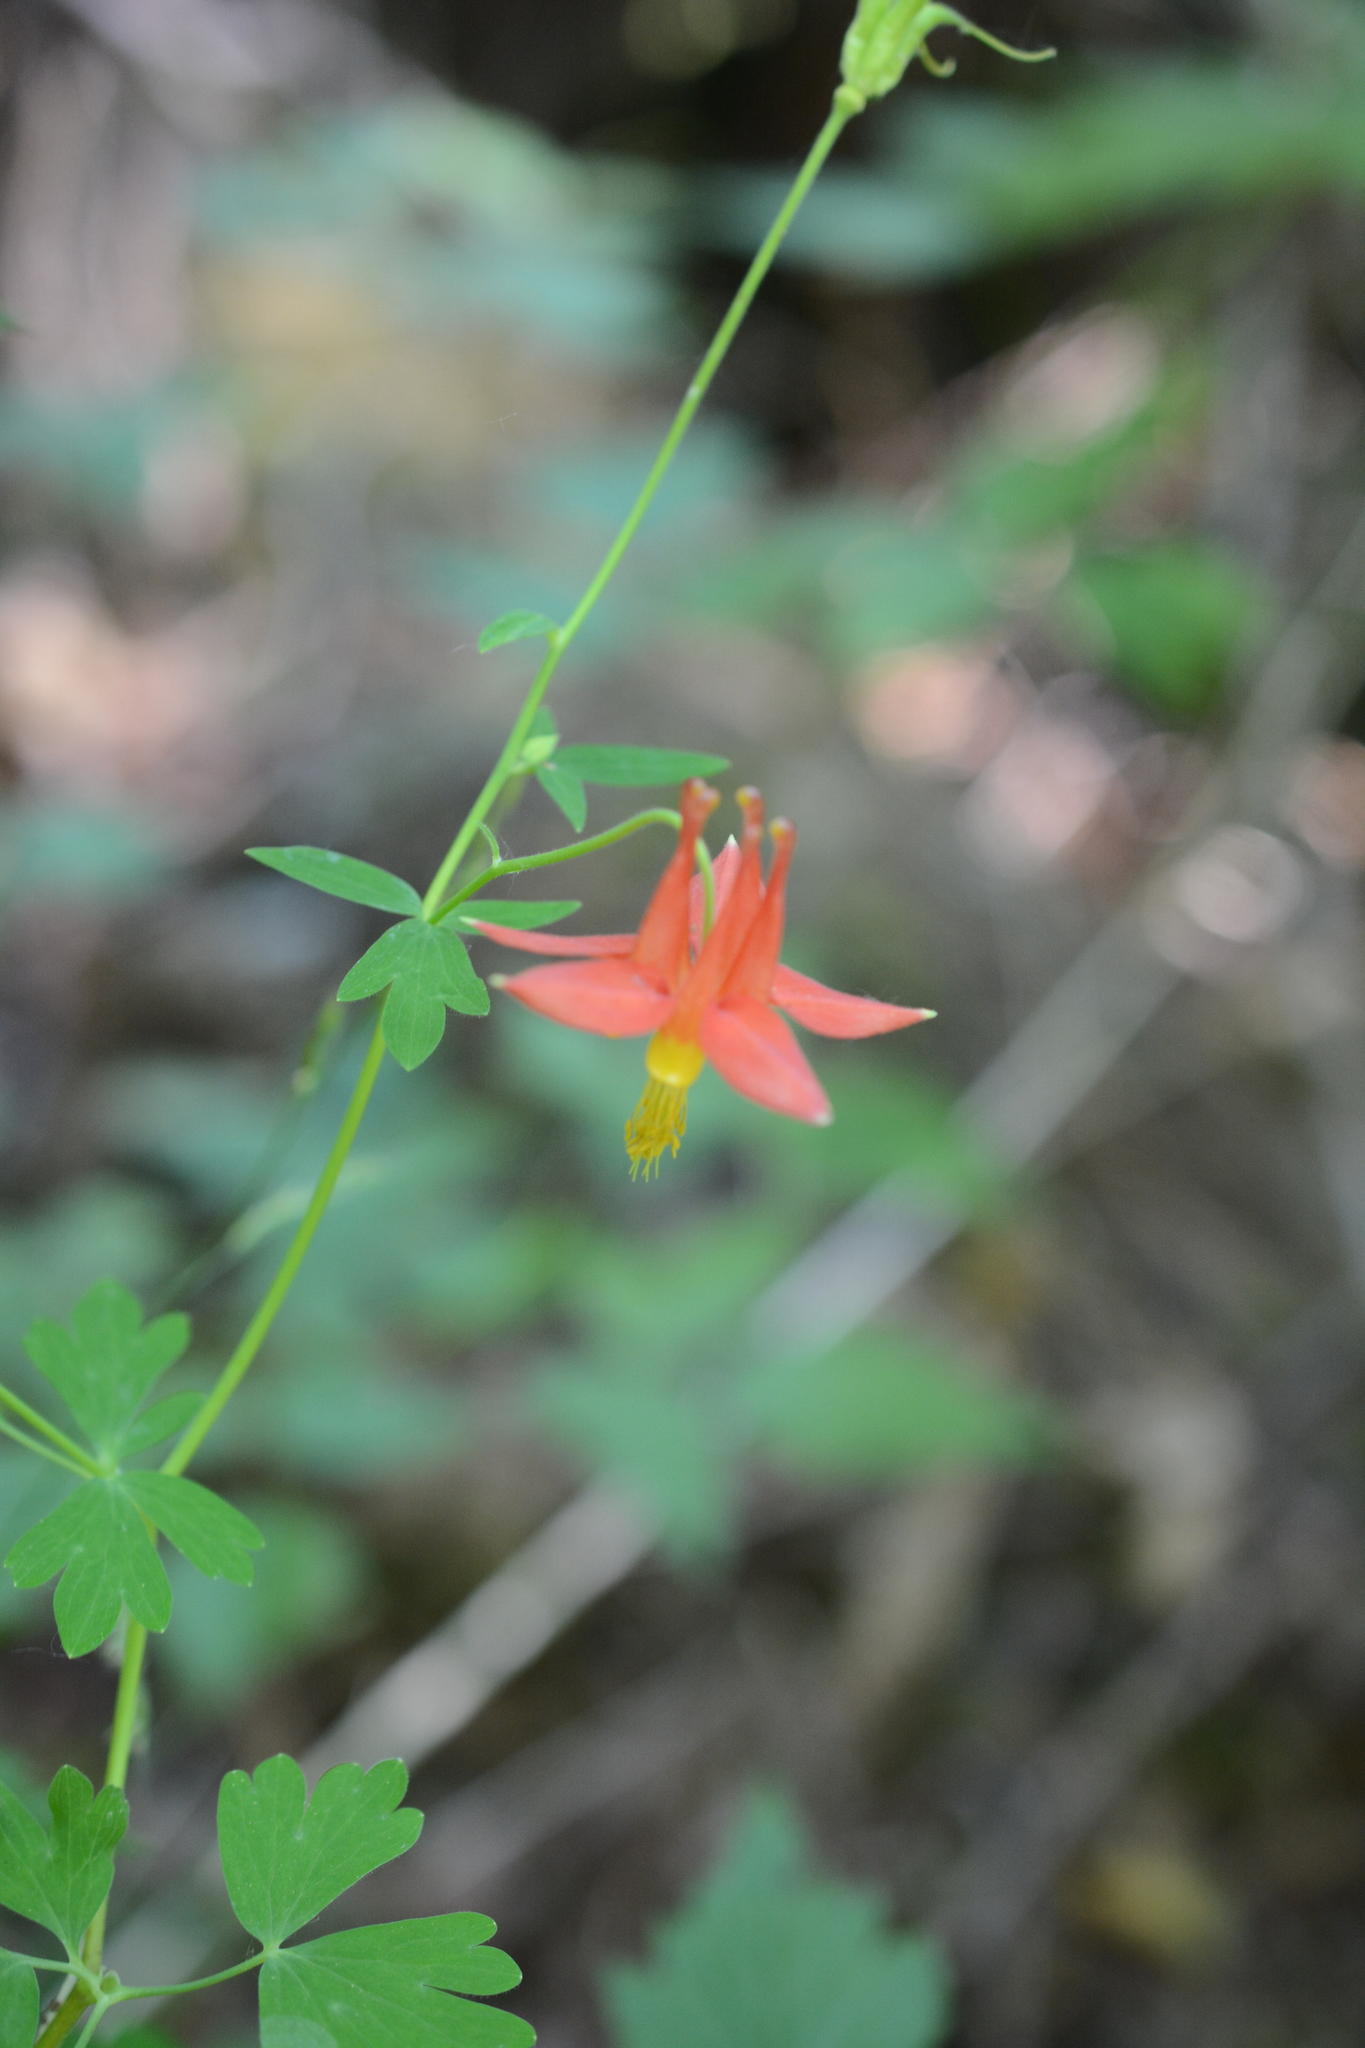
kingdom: Plantae
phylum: Tracheophyta
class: Magnoliopsida
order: Ranunculales
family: Ranunculaceae
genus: Aquilegia
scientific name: Aquilegia formosa
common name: Sitka columbine
